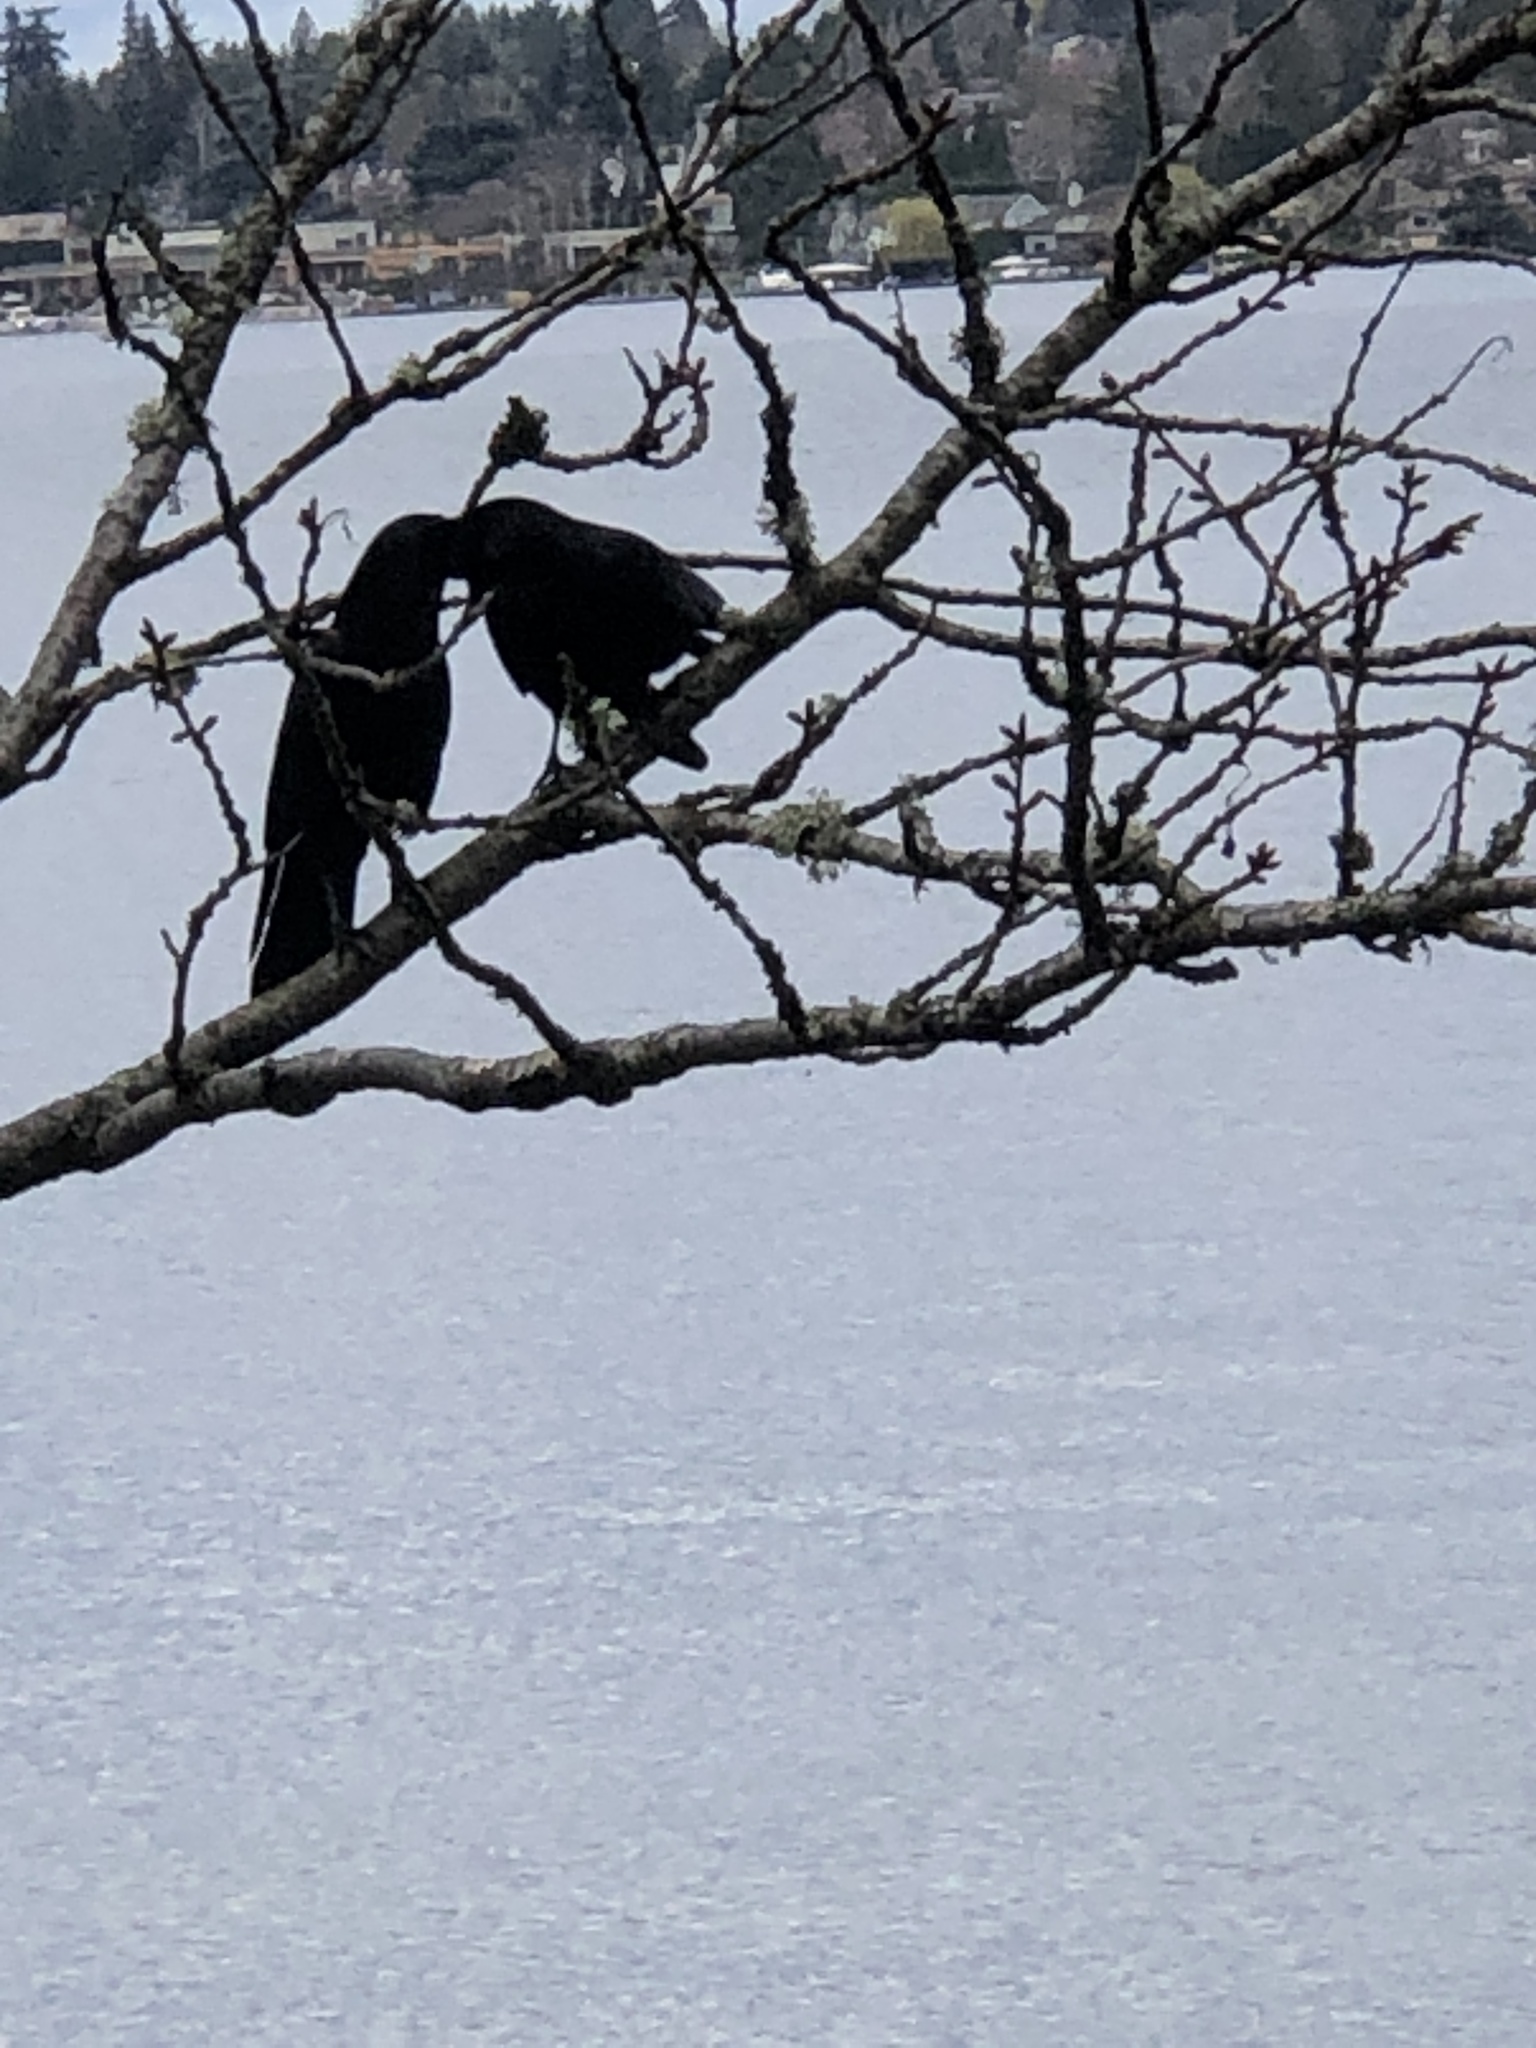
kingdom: Animalia
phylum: Chordata
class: Aves
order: Passeriformes
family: Corvidae
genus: Corvus
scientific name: Corvus brachyrhynchos
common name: American crow
